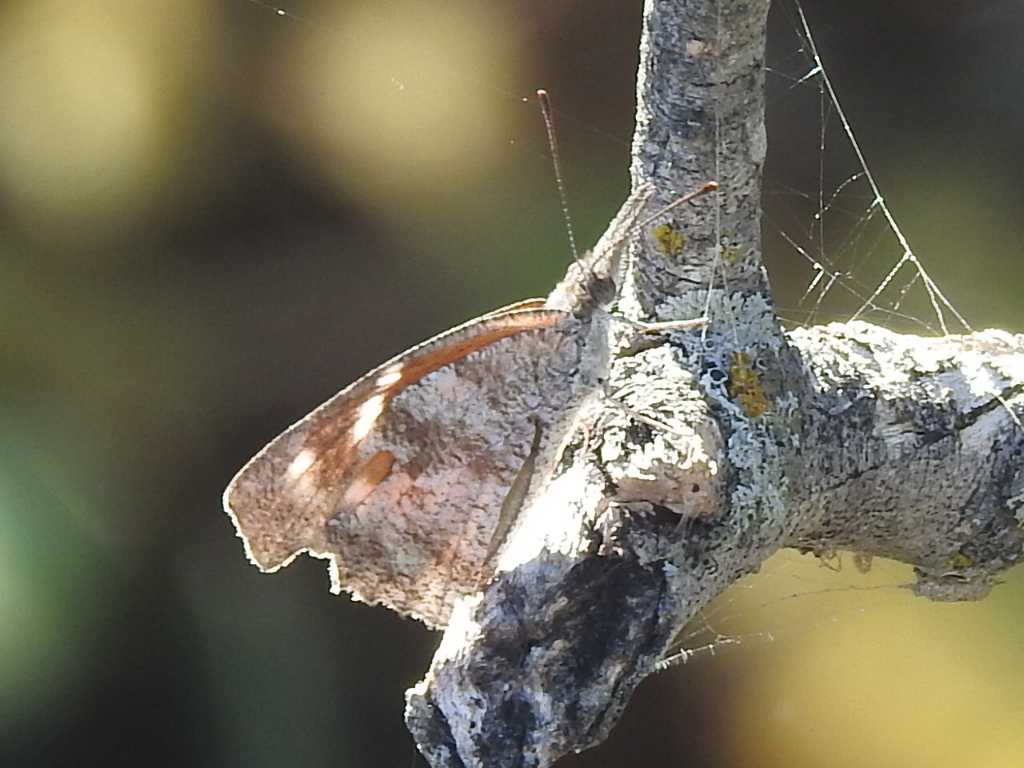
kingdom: Animalia
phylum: Arthropoda
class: Insecta
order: Lepidoptera
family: Nymphalidae
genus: Libytheana
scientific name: Libytheana carinenta
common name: American snout
